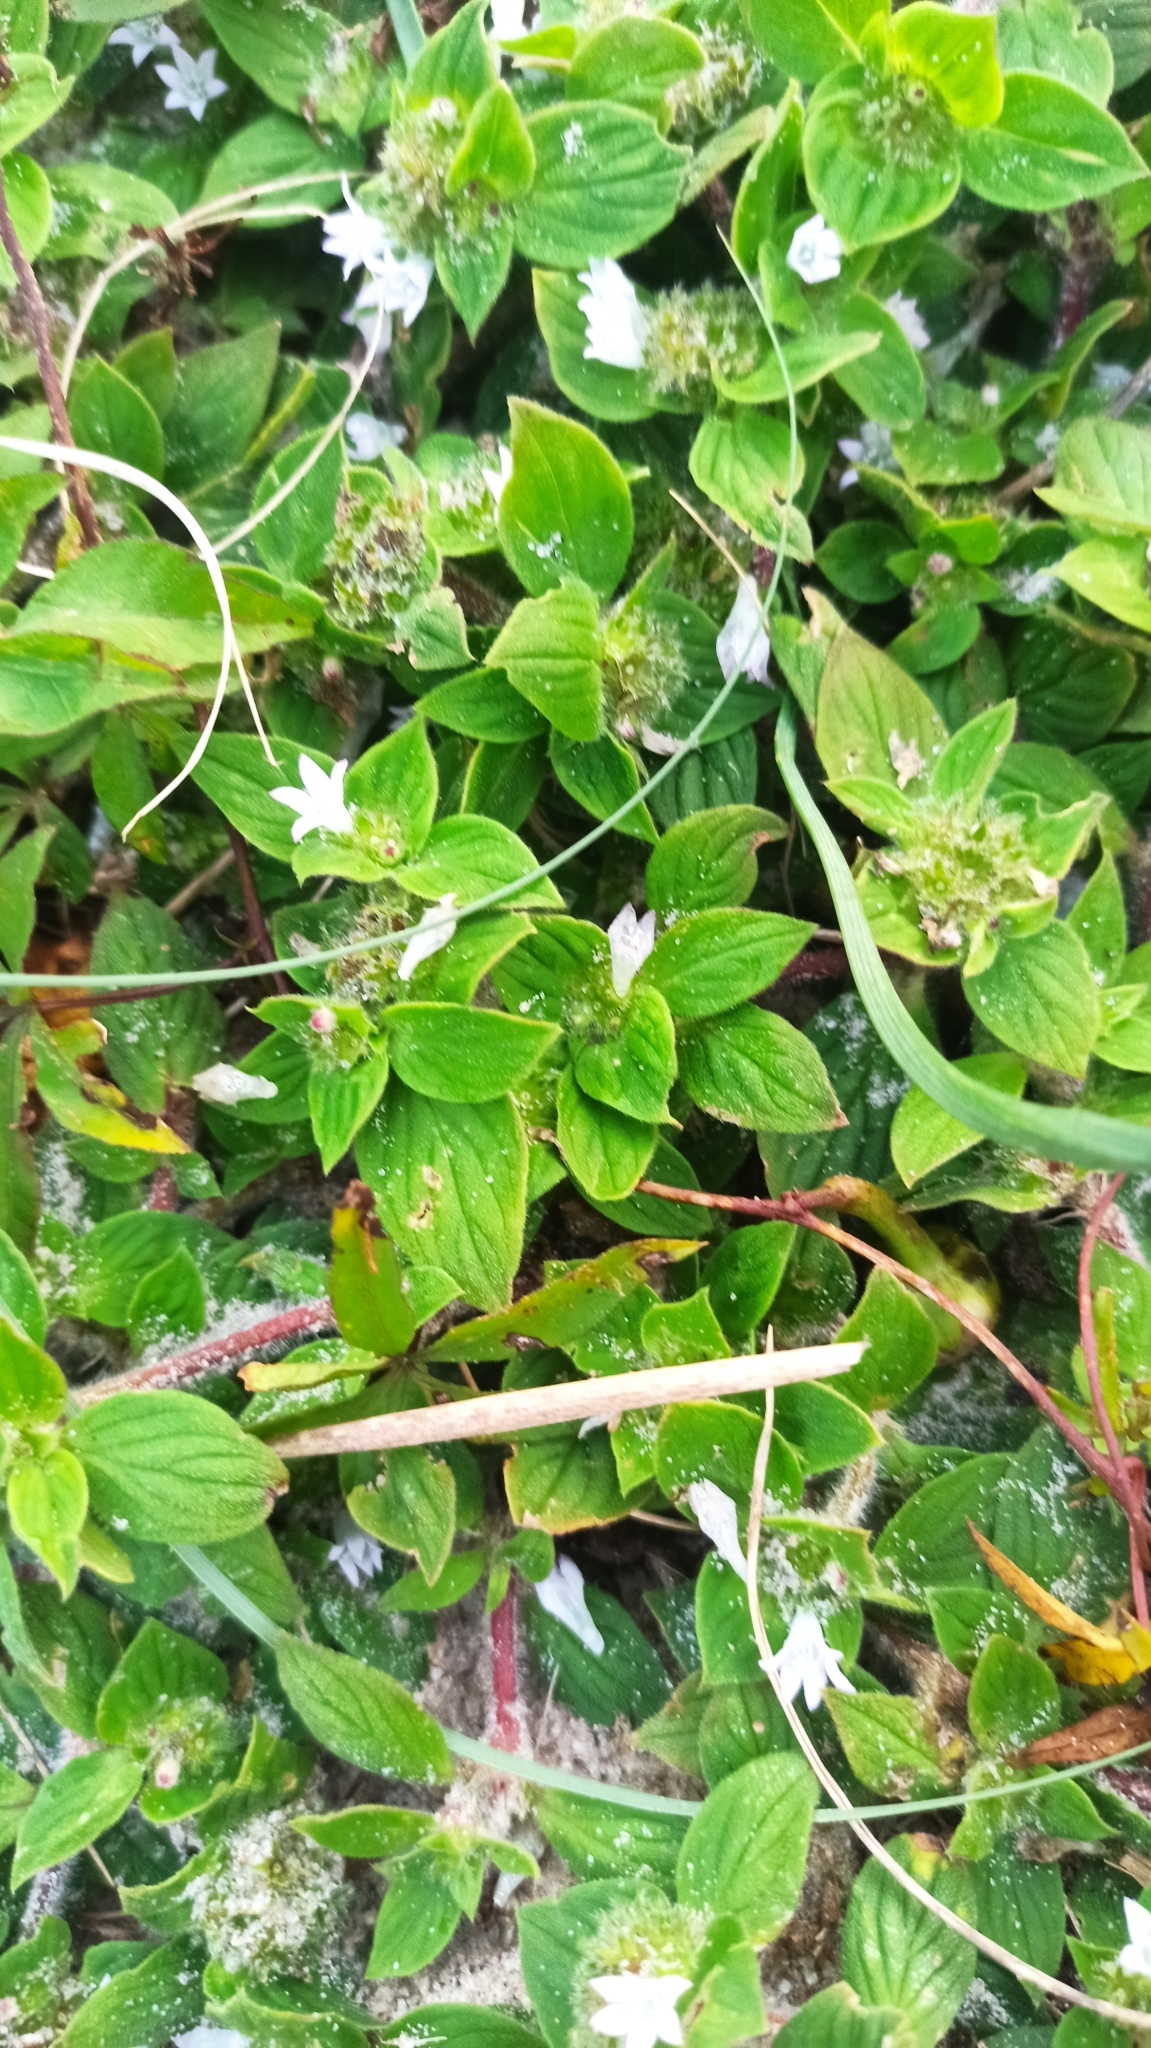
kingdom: Plantae
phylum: Tracheophyta
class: Magnoliopsida
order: Gentianales
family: Rubiaceae
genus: Richardia
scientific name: Richardia brasiliensis
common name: Tropical mexican clover
